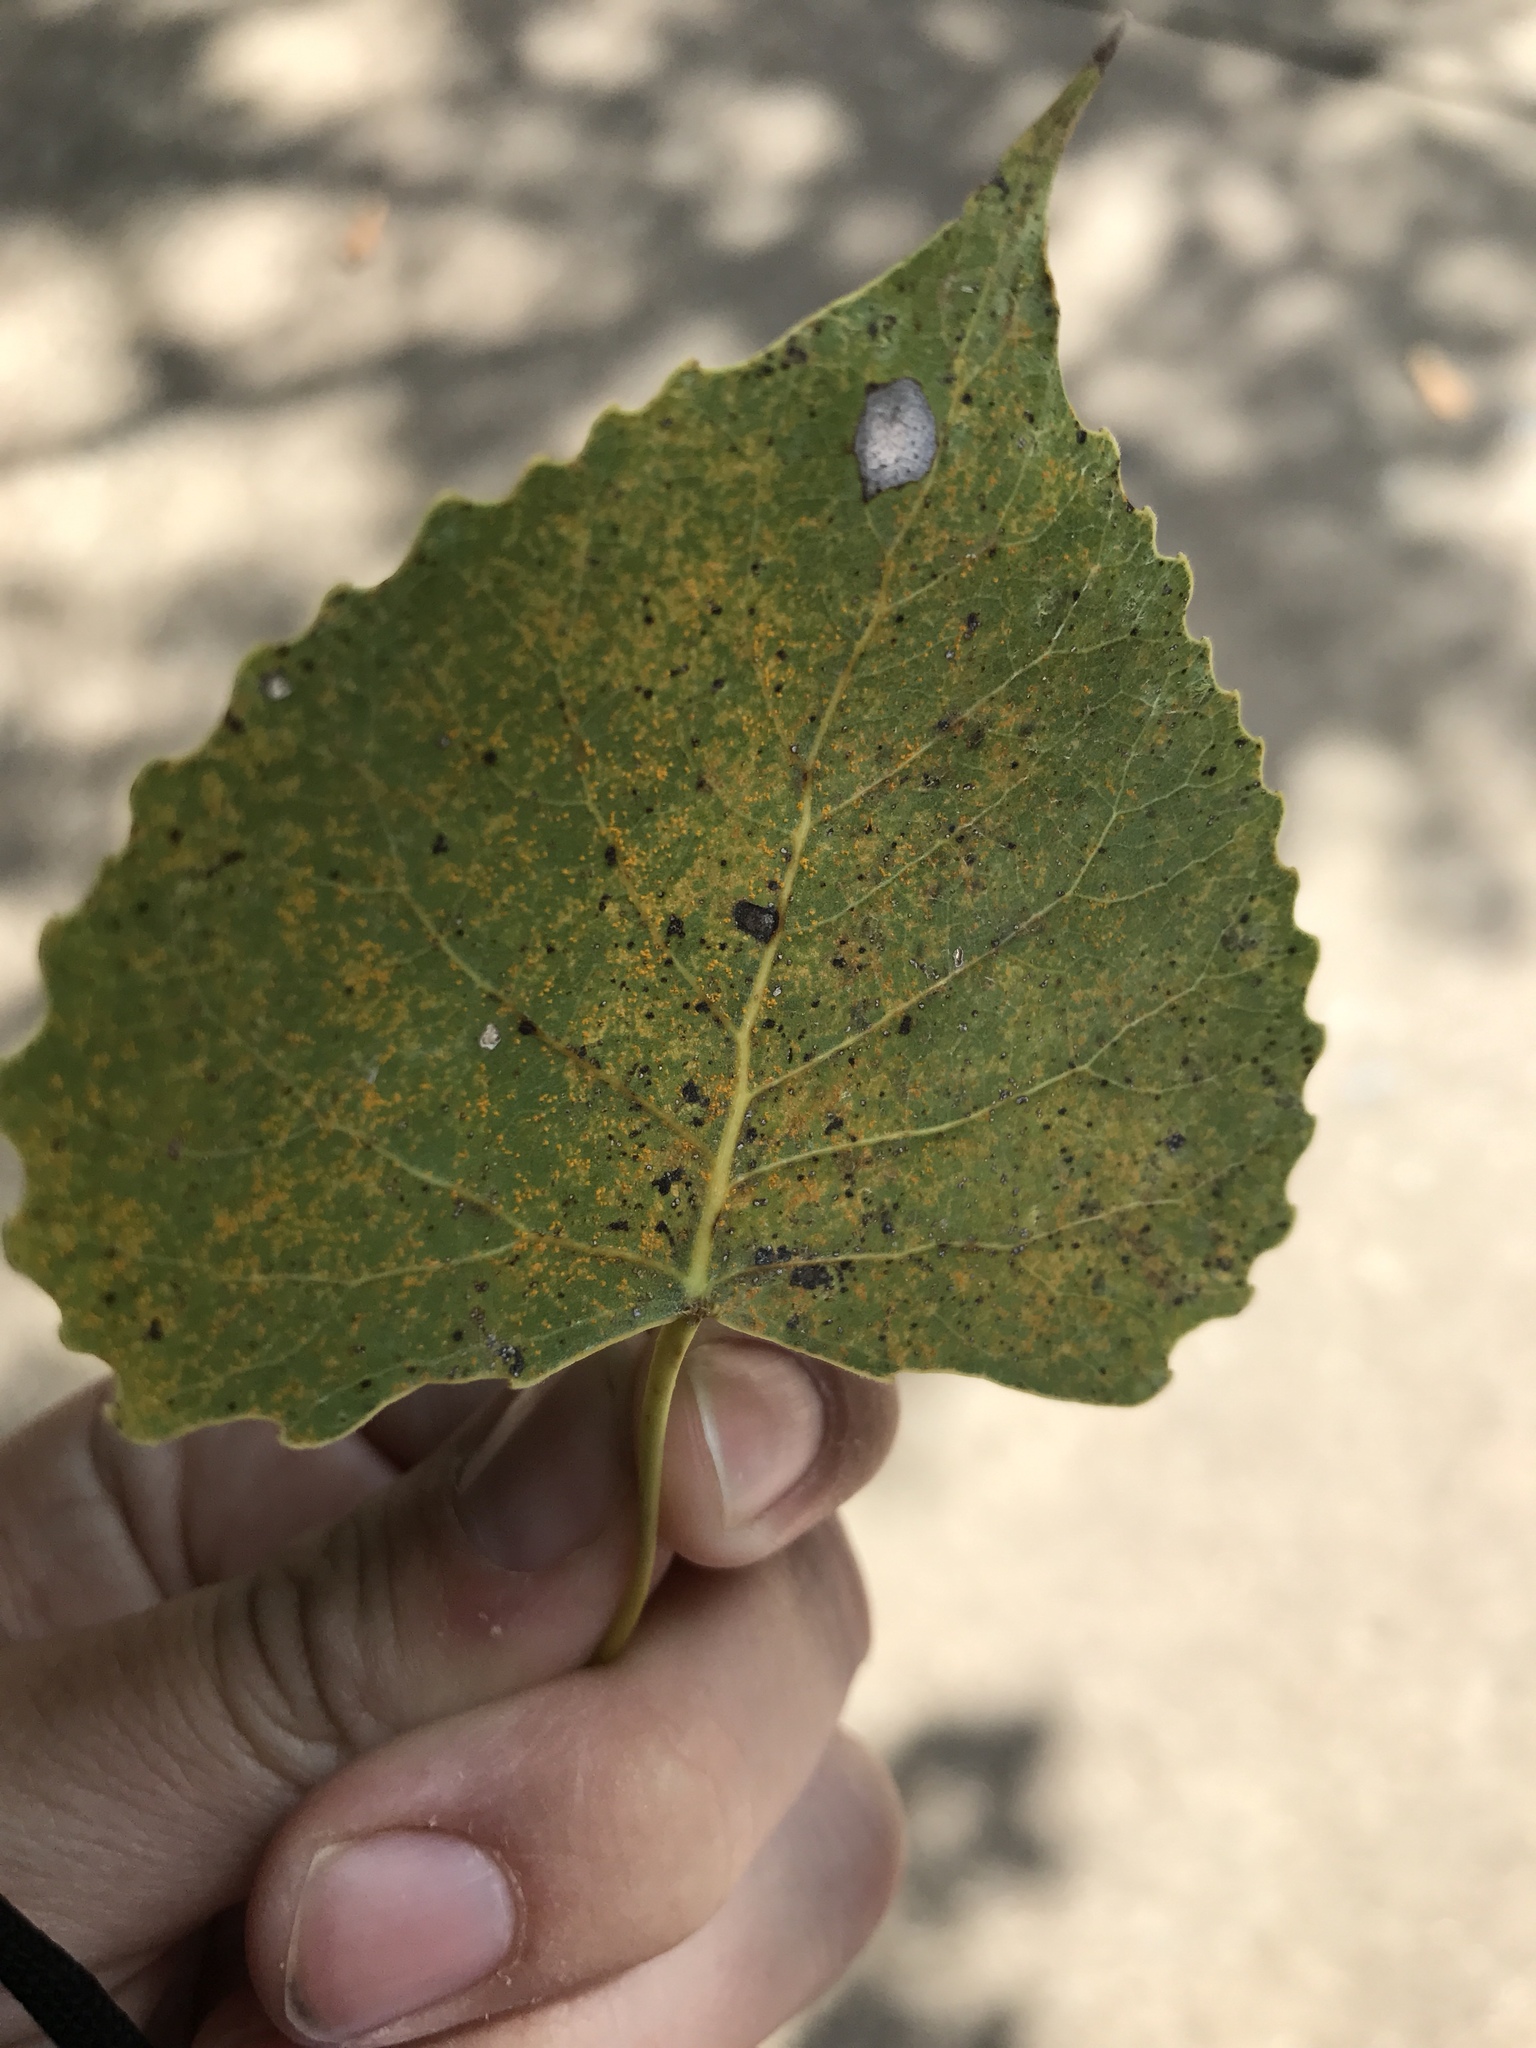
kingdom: Plantae
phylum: Tracheophyta
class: Magnoliopsida
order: Malpighiales
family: Salicaceae
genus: Populus
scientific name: Populus deltoides
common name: Eastern cottonwood
